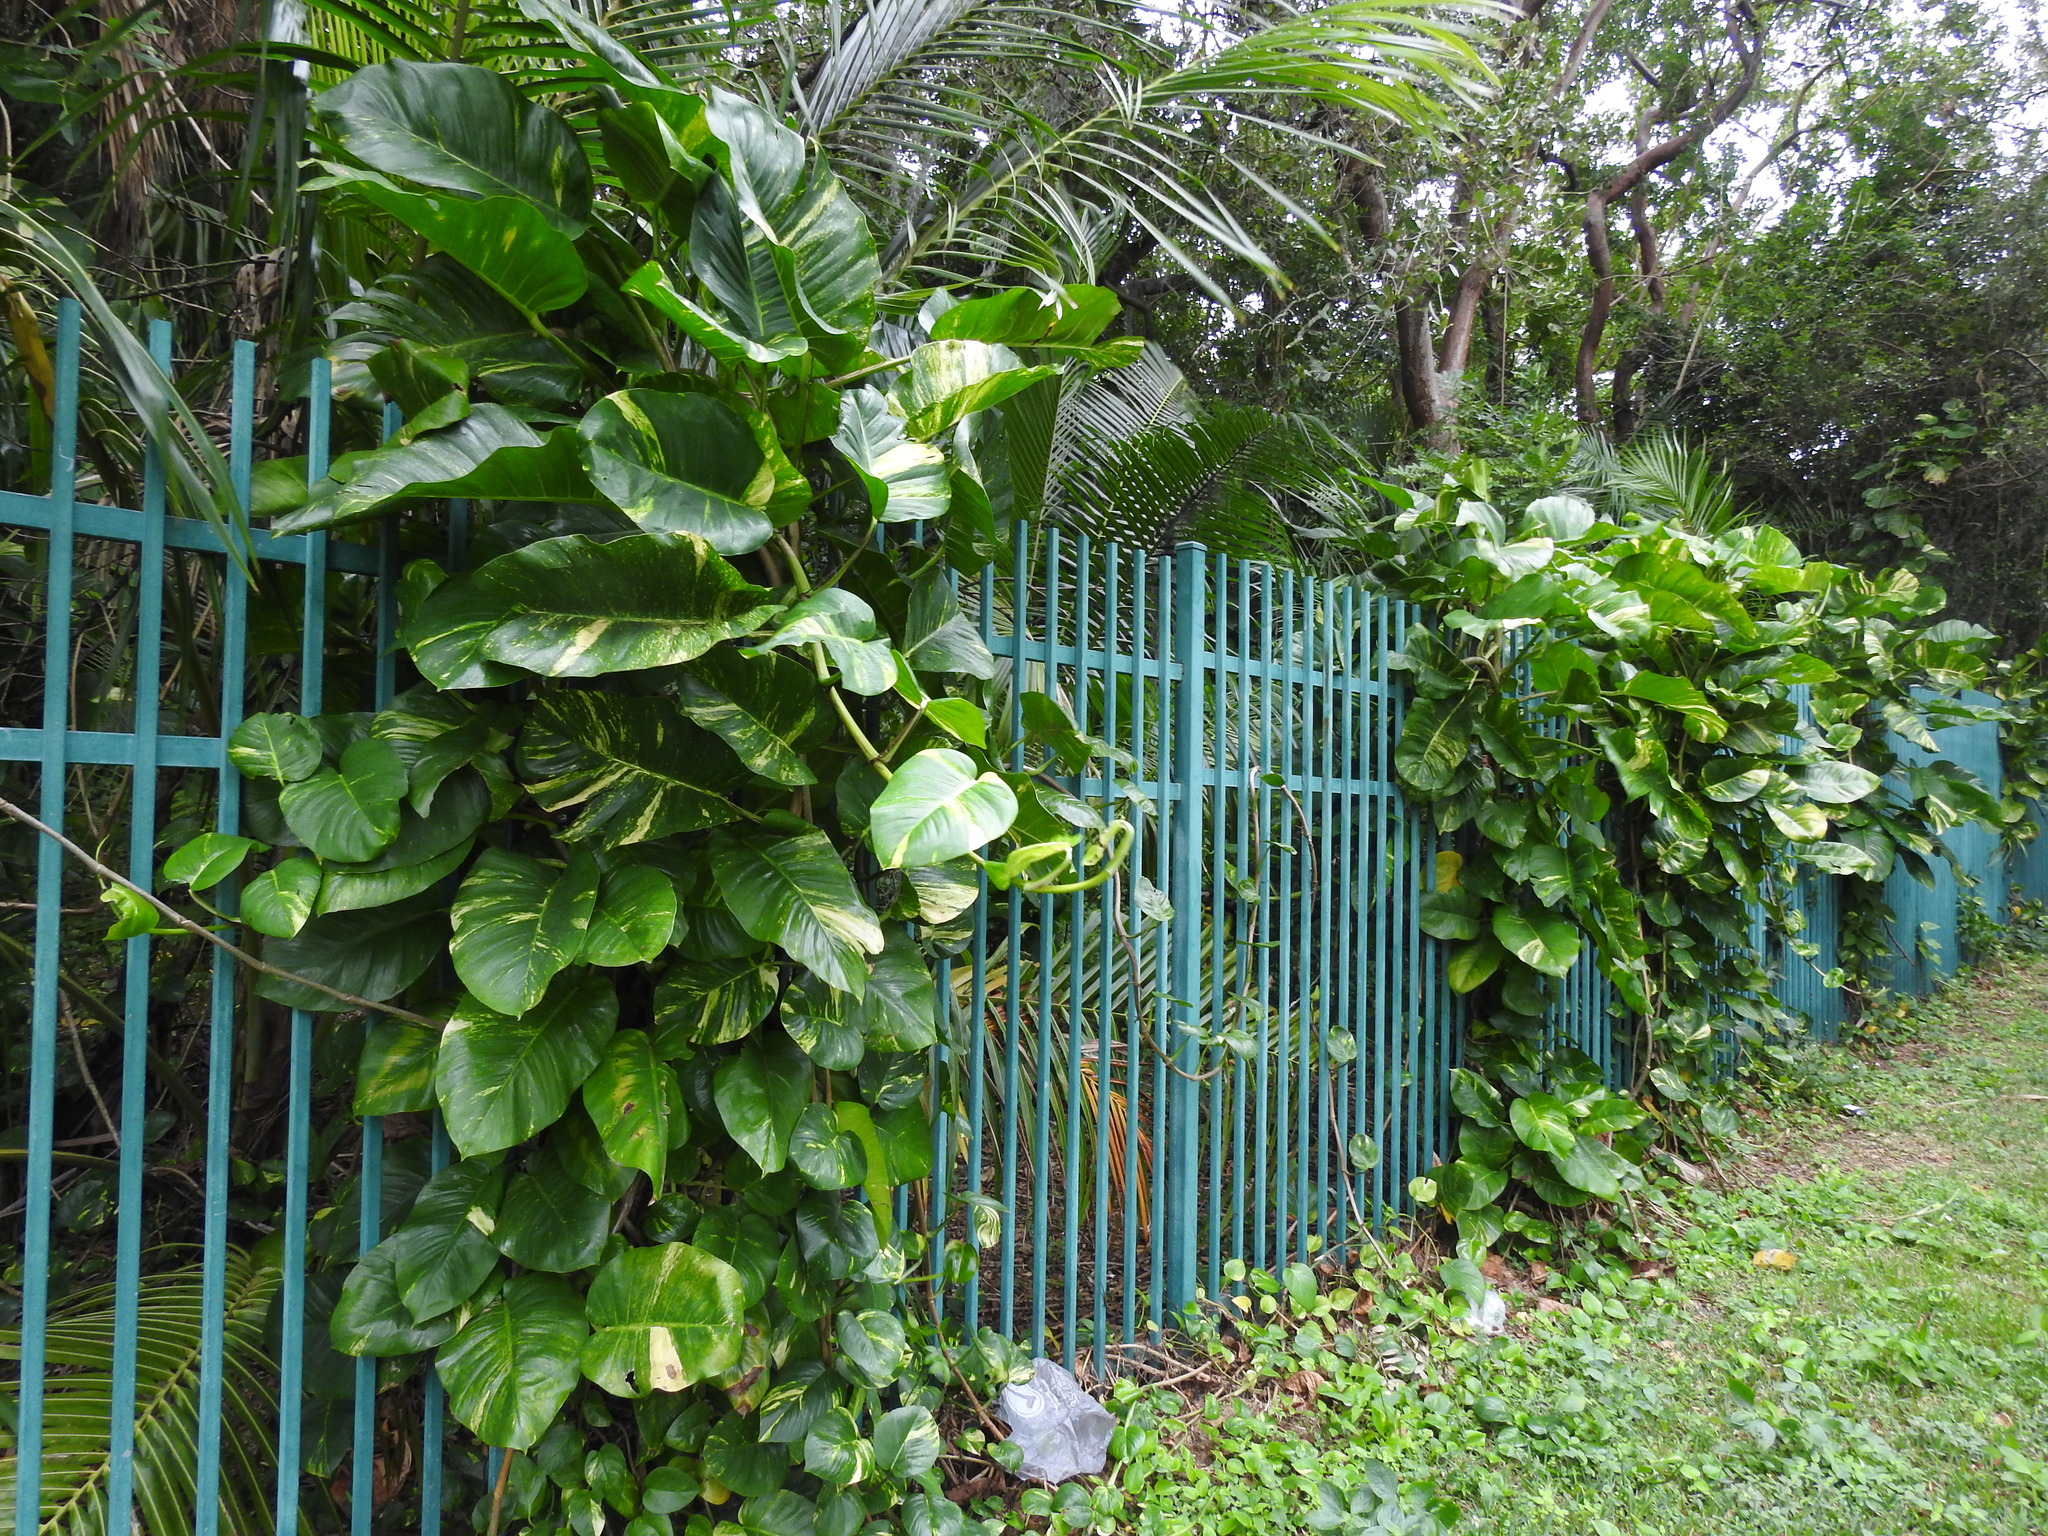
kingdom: Plantae
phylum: Tracheophyta
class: Liliopsida
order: Alismatales
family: Araceae
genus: Epipremnum
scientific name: Epipremnum aureum
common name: Golden hunter's-robe
